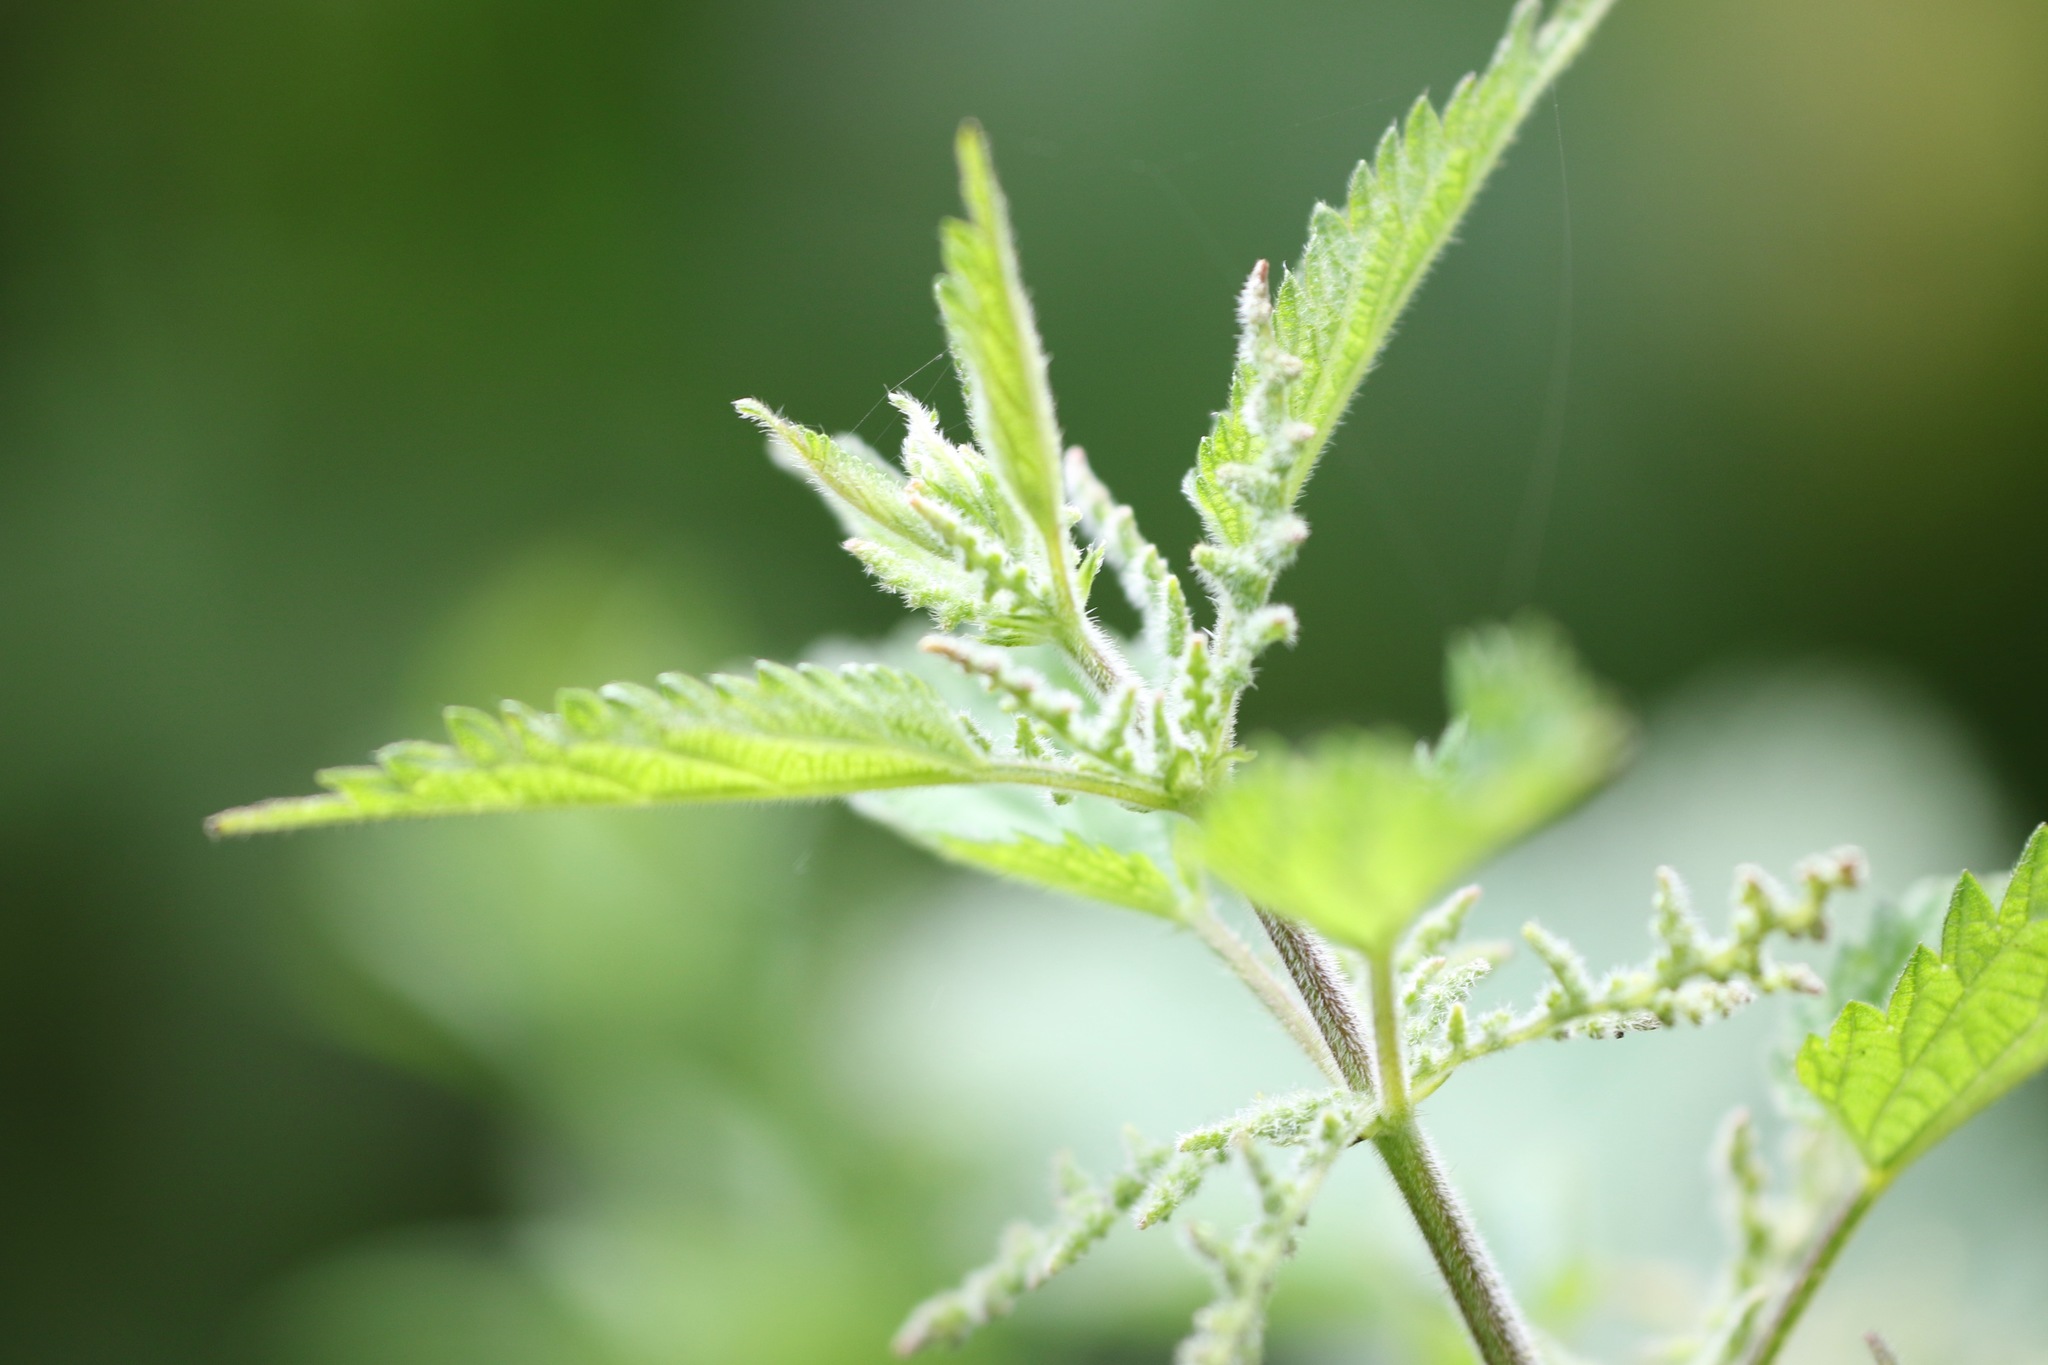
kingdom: Plantae
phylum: Tracheophyta
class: Magnoliopsida
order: Rosales
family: Urticaceae
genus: Urtica
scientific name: Urtica dioica
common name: Common nettle
